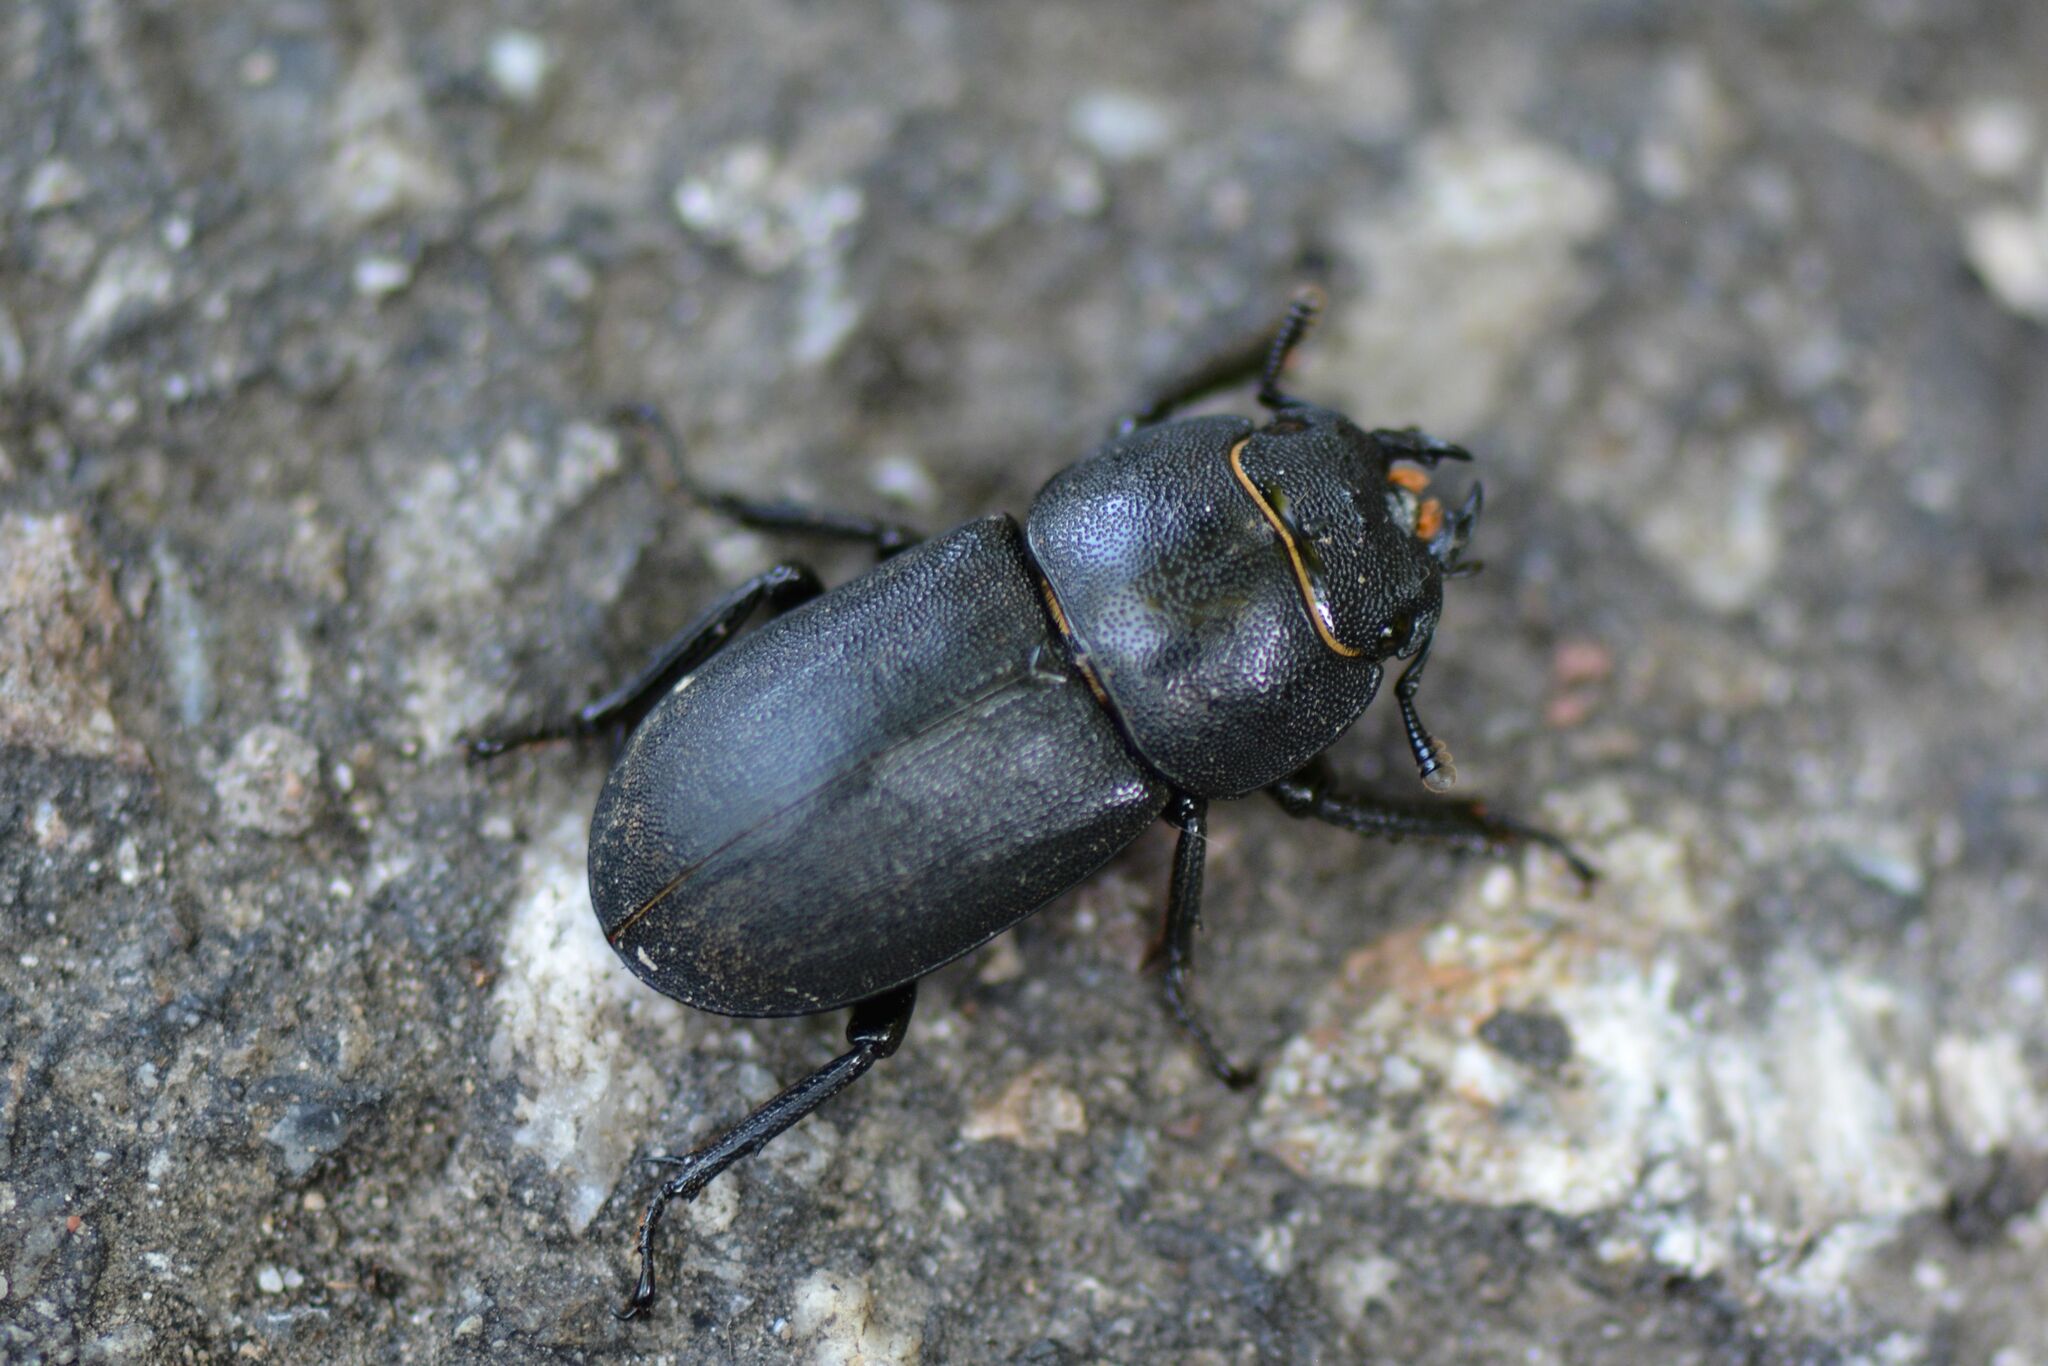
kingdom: Animalia
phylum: Arthropoda
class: Insecta
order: Coleoptera
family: Lucanidae
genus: Dorcus
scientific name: Dorcus parallelipipedus
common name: Lesser stag beetle
